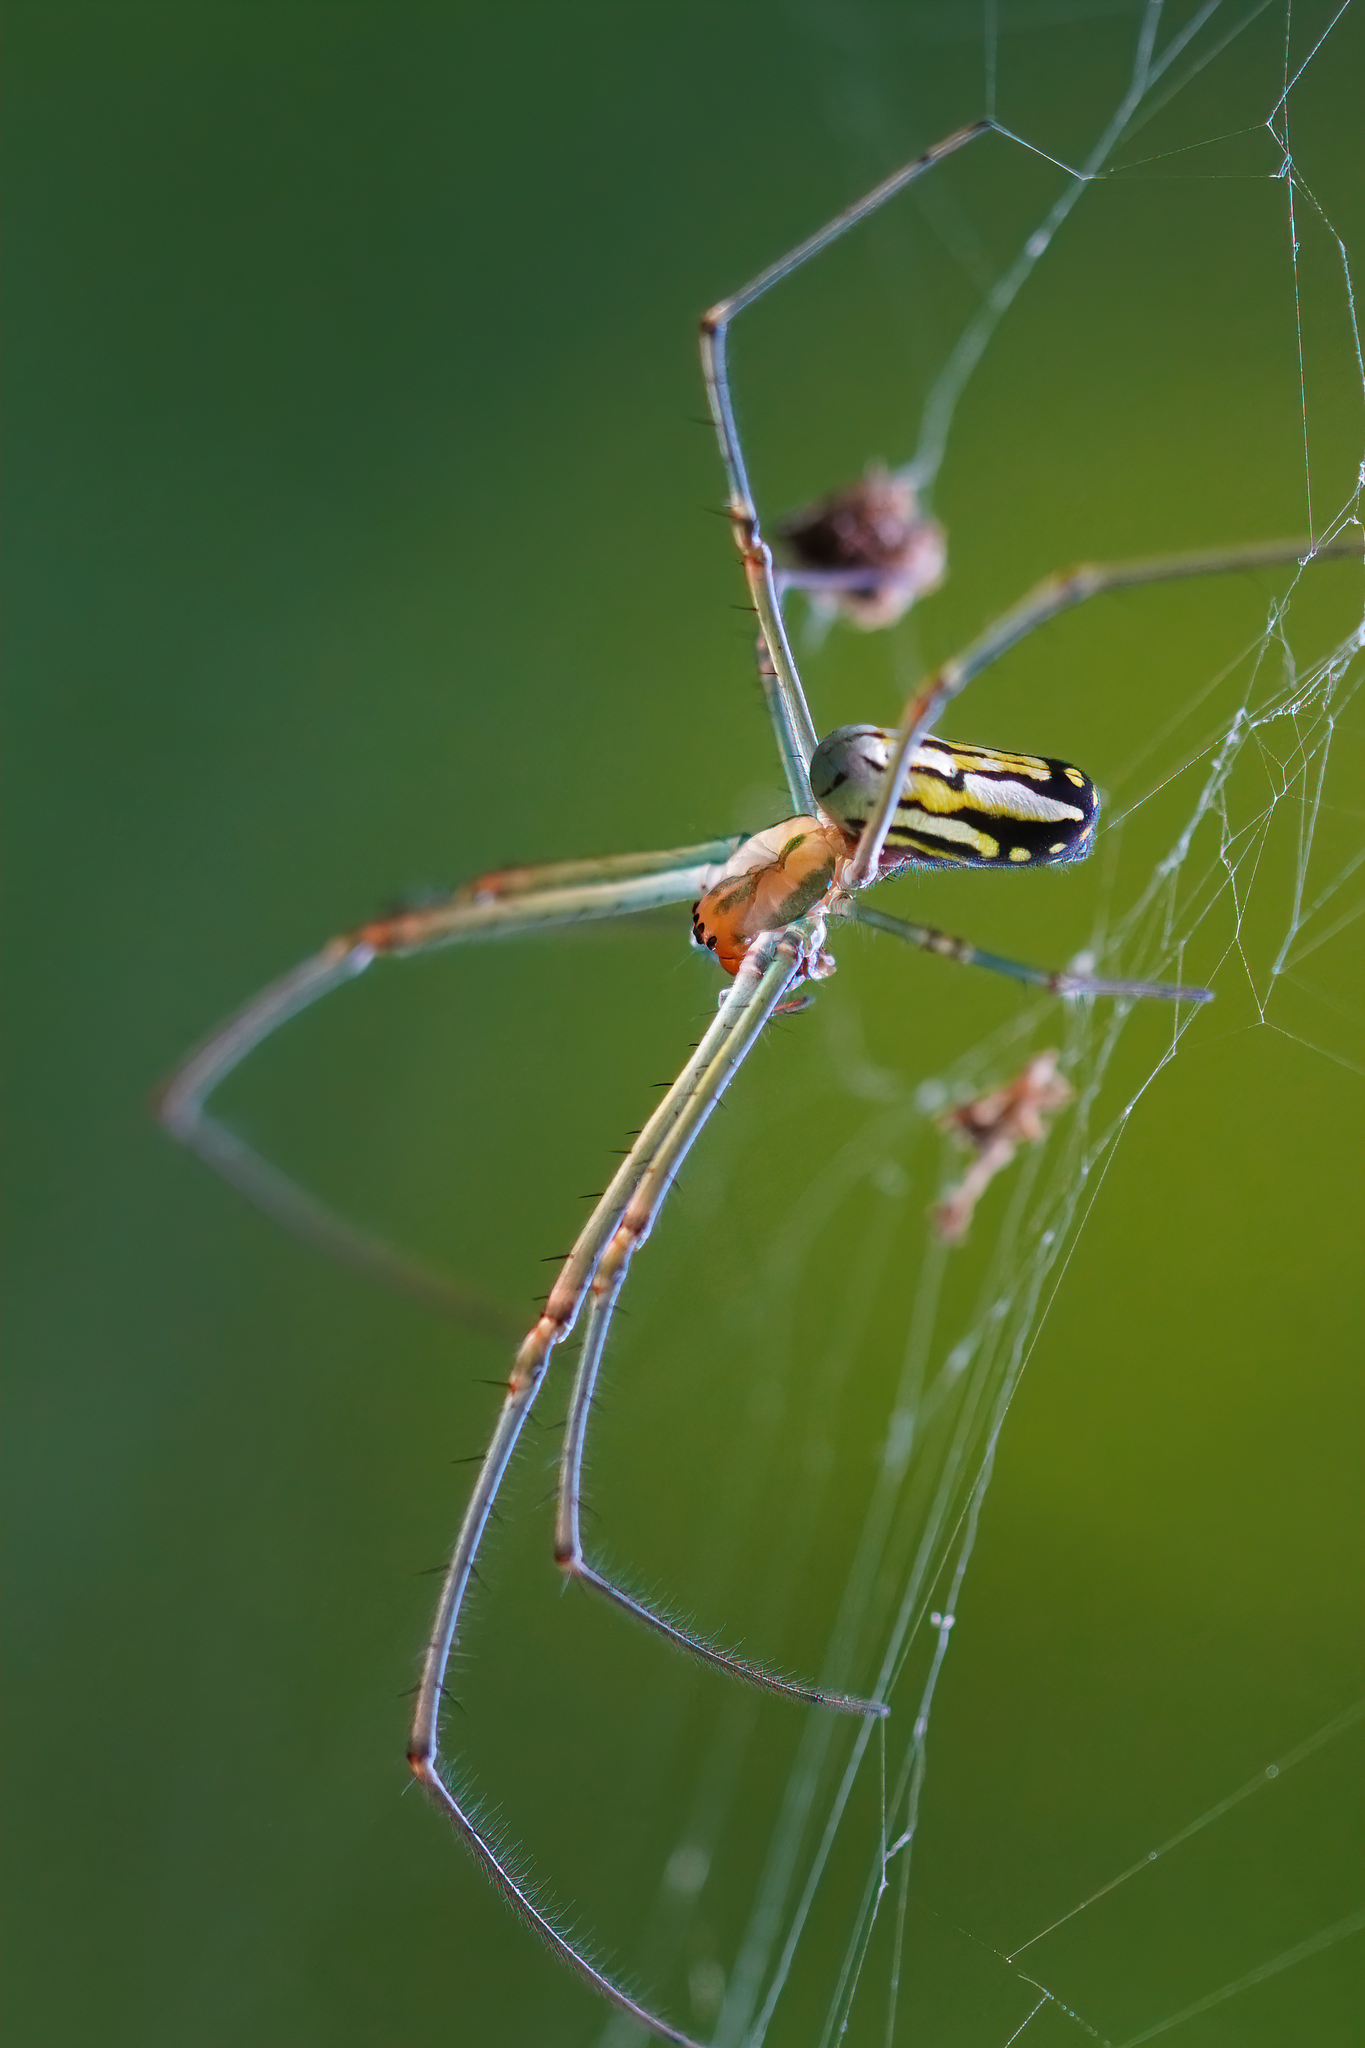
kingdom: Animalia
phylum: Arthropoda
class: Arachnida
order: Araneae
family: Tetragnathidae
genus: Leucauge
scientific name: Leucauge argyra
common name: Longjawed orb weavers
